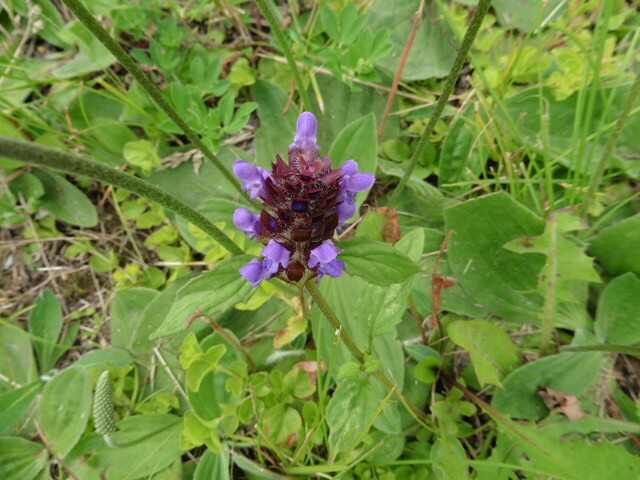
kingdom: Plantae
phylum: Tracheophyta
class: Magnoliopsida
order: Lamiales
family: Lamiaceae
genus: Prunella
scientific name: Prunella vulgaris
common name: Heal-all
